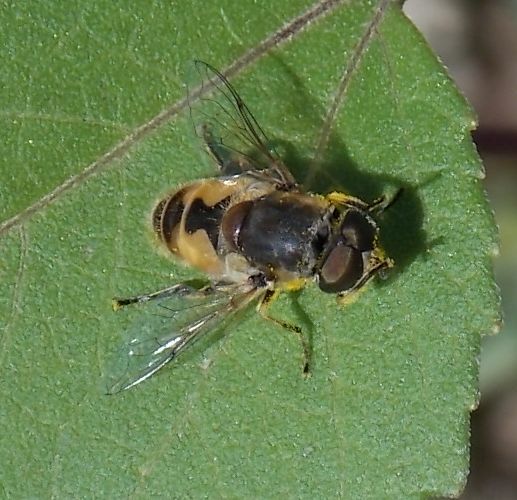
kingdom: Animalia
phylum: Arthropoda
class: Insecta
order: Diptera
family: Syrphidae
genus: Eristalis
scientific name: Eristalis arbustorum
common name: Hover fly
